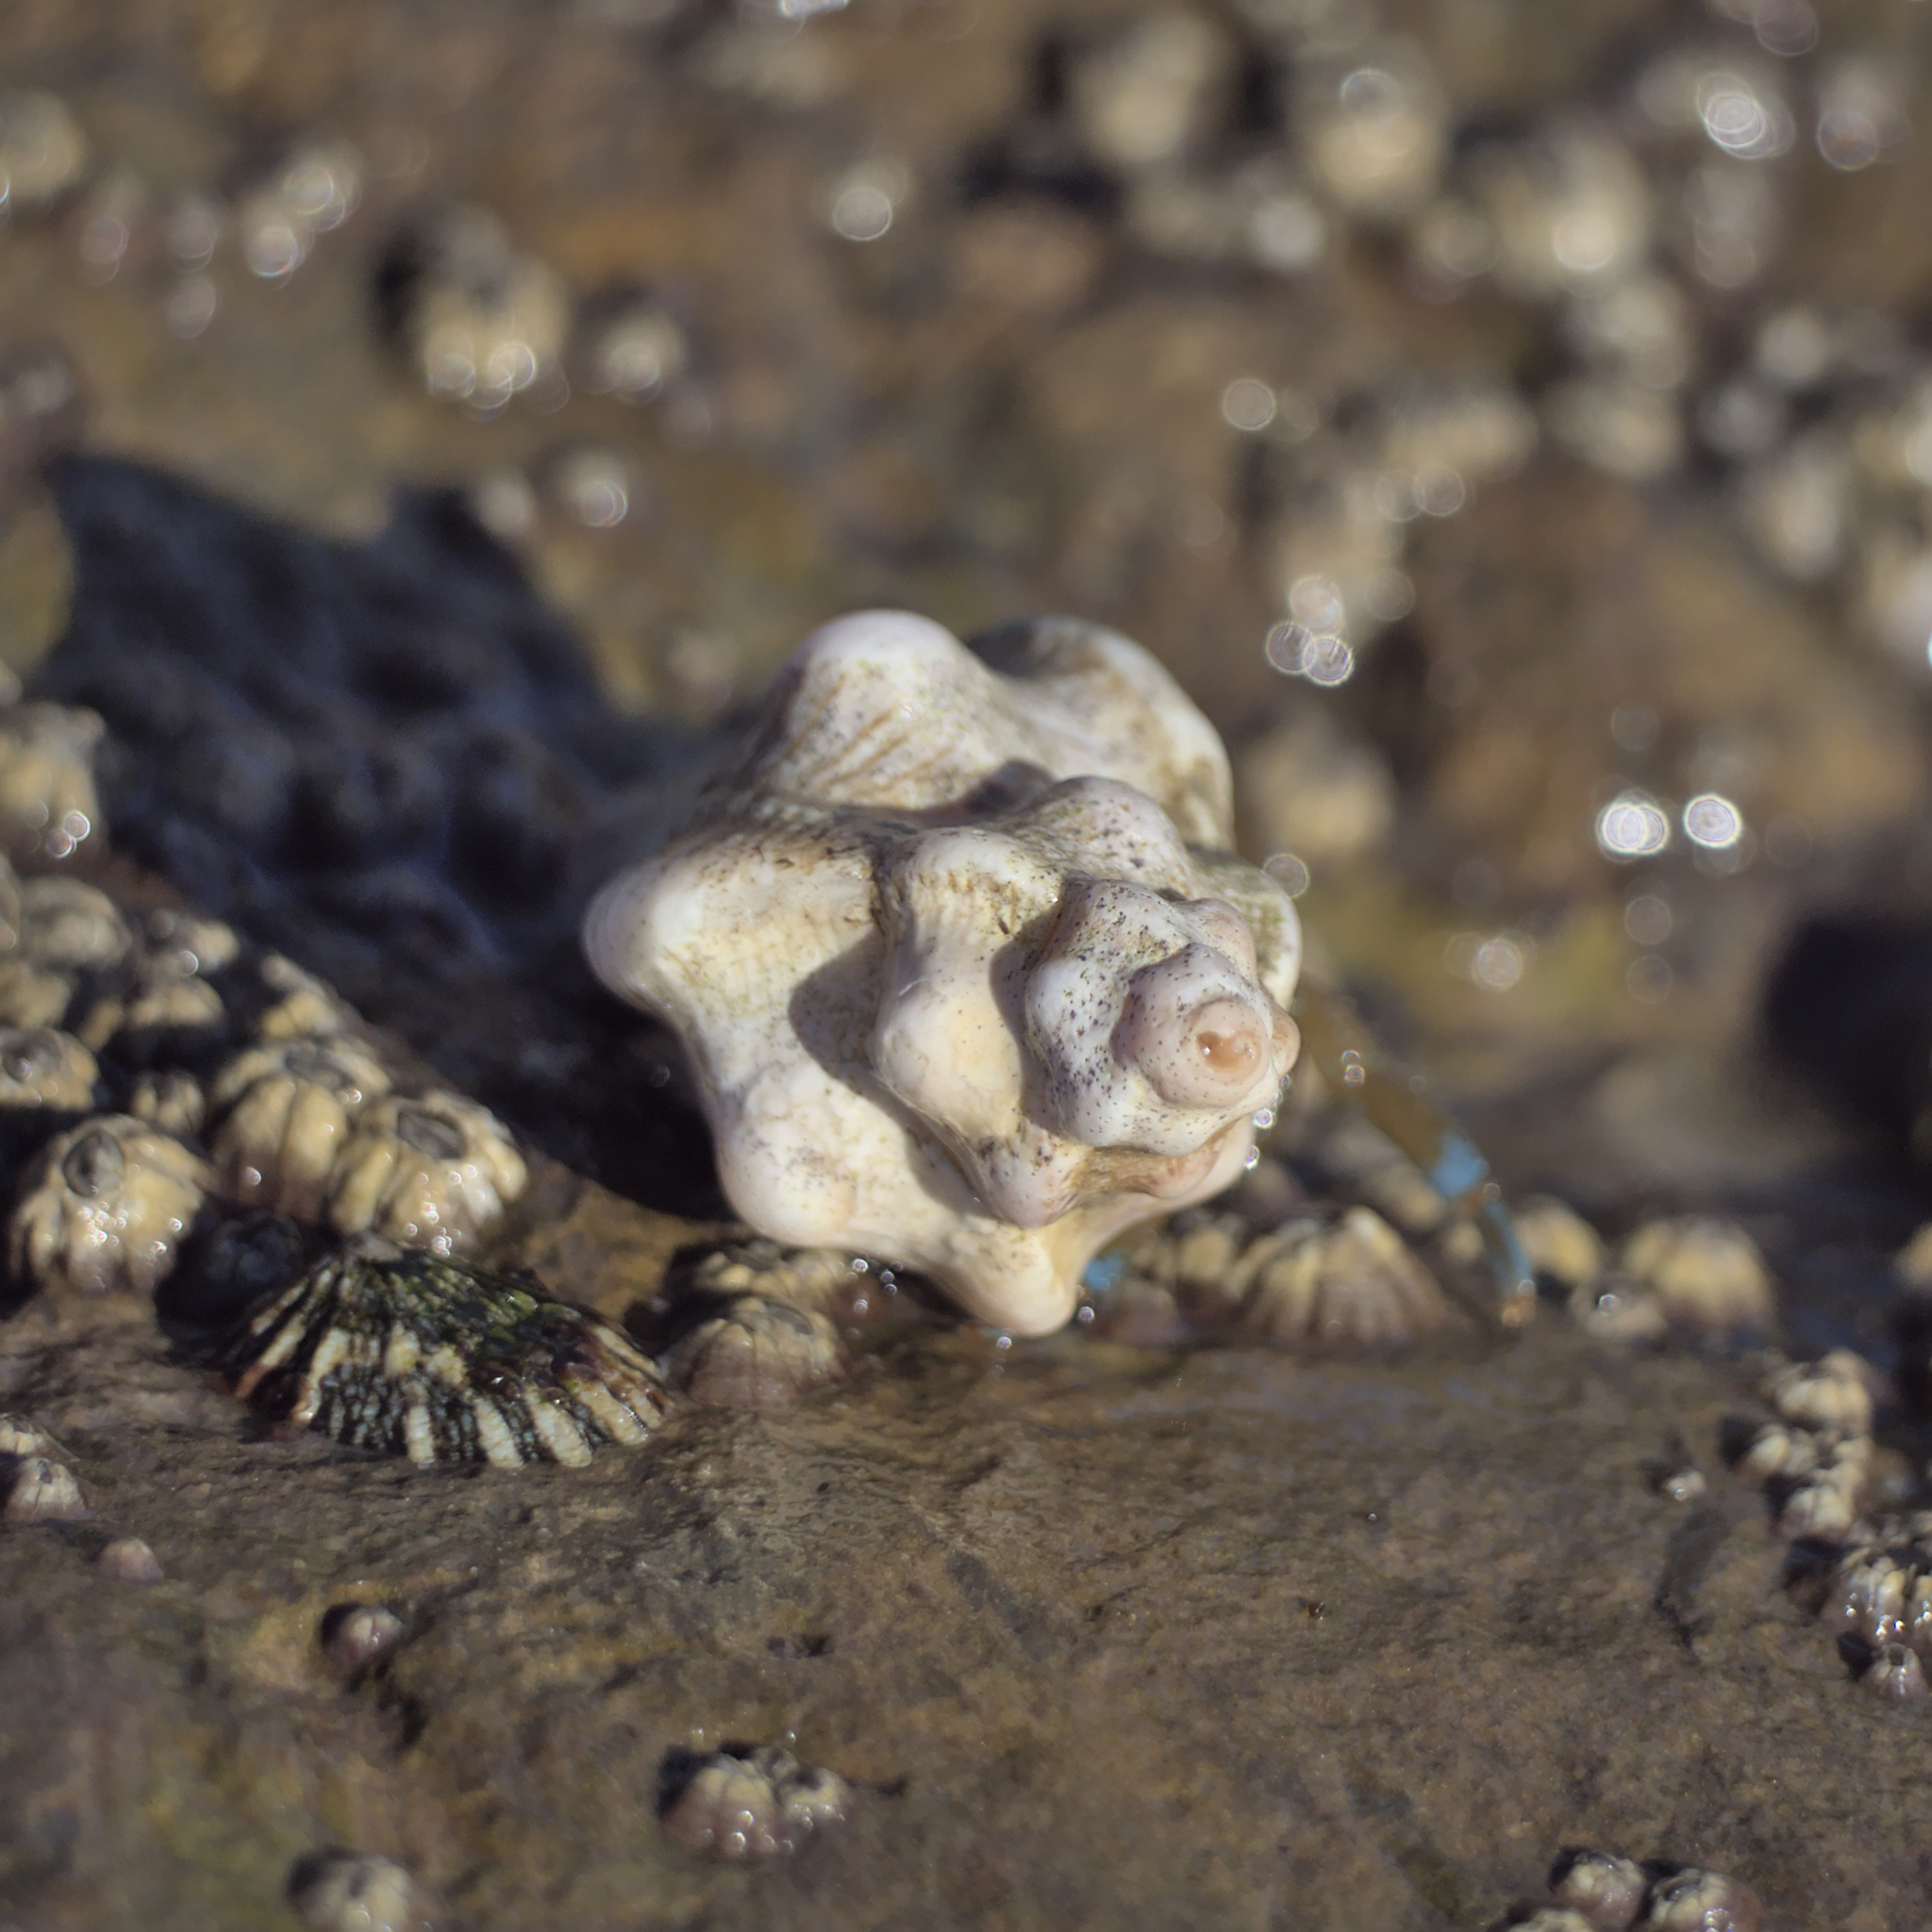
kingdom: Animalia
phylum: Mollusca
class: Gastropoda
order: Neogastropoda
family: Muricidae
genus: Pteropurpura
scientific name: Pteropurpura festiva
